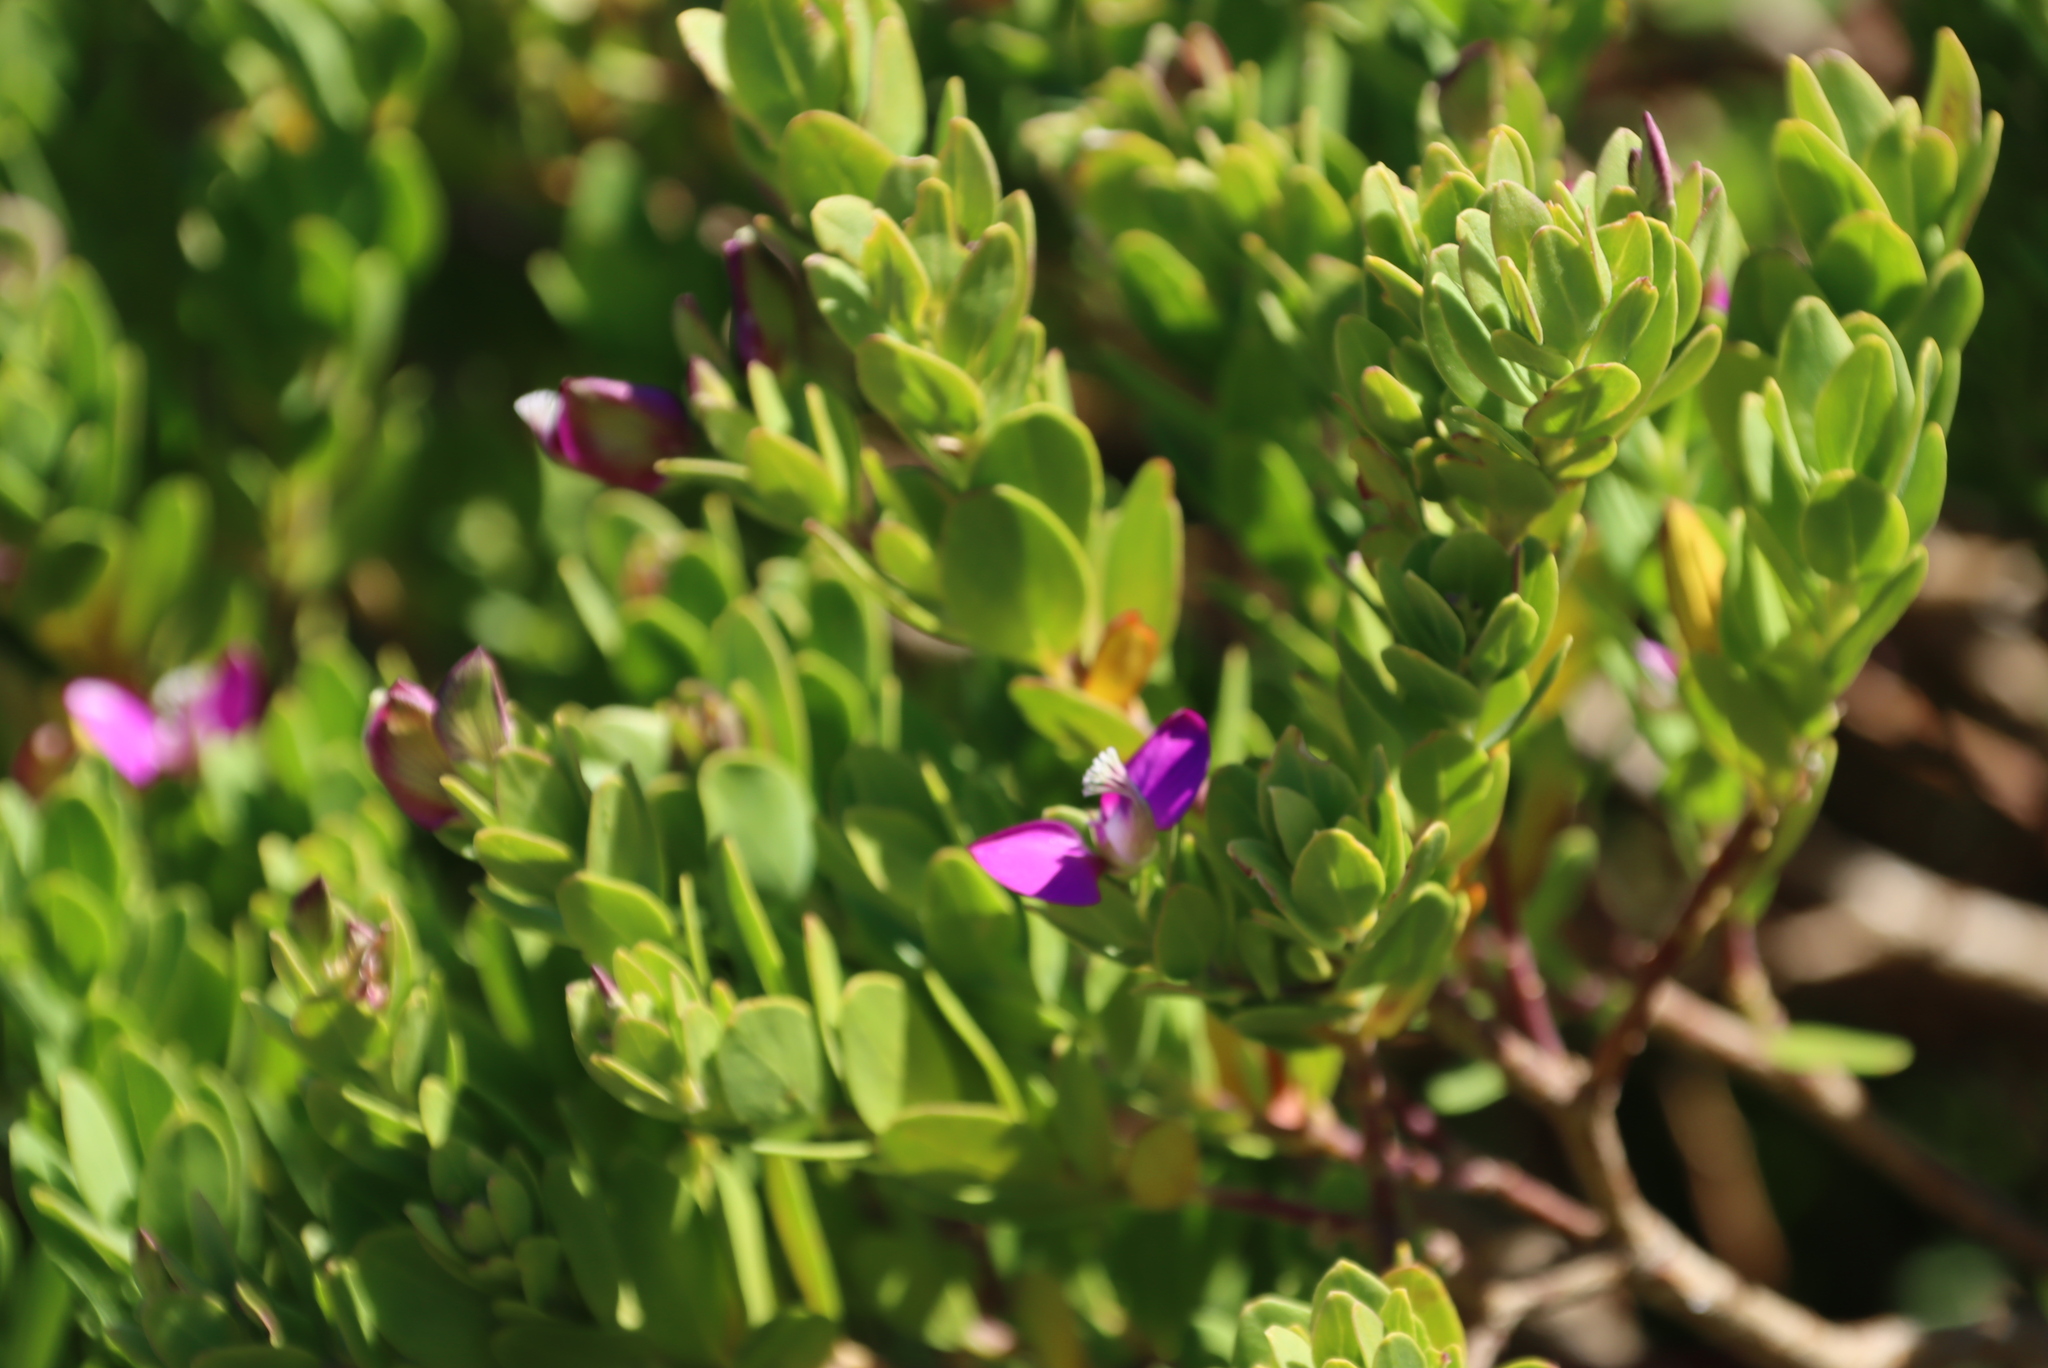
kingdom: Plantae
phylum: Tracheophyta
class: Magnoliopsida
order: Fabales
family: Polygalaceae
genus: Polygala
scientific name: Polygala myrtifolia
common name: Myrtle-leaf milkwort
